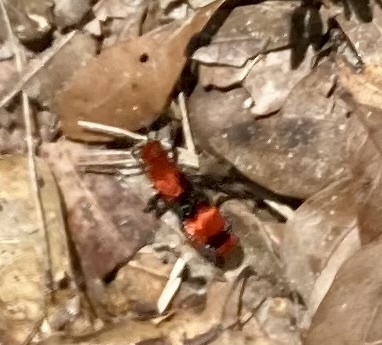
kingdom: Animalia
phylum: Arthropoda
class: Insecta
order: Hymenoptera
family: Mutillidae
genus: Dasymutilla
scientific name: Dasymutilla occidentalis
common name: Common eastern velvet ant
